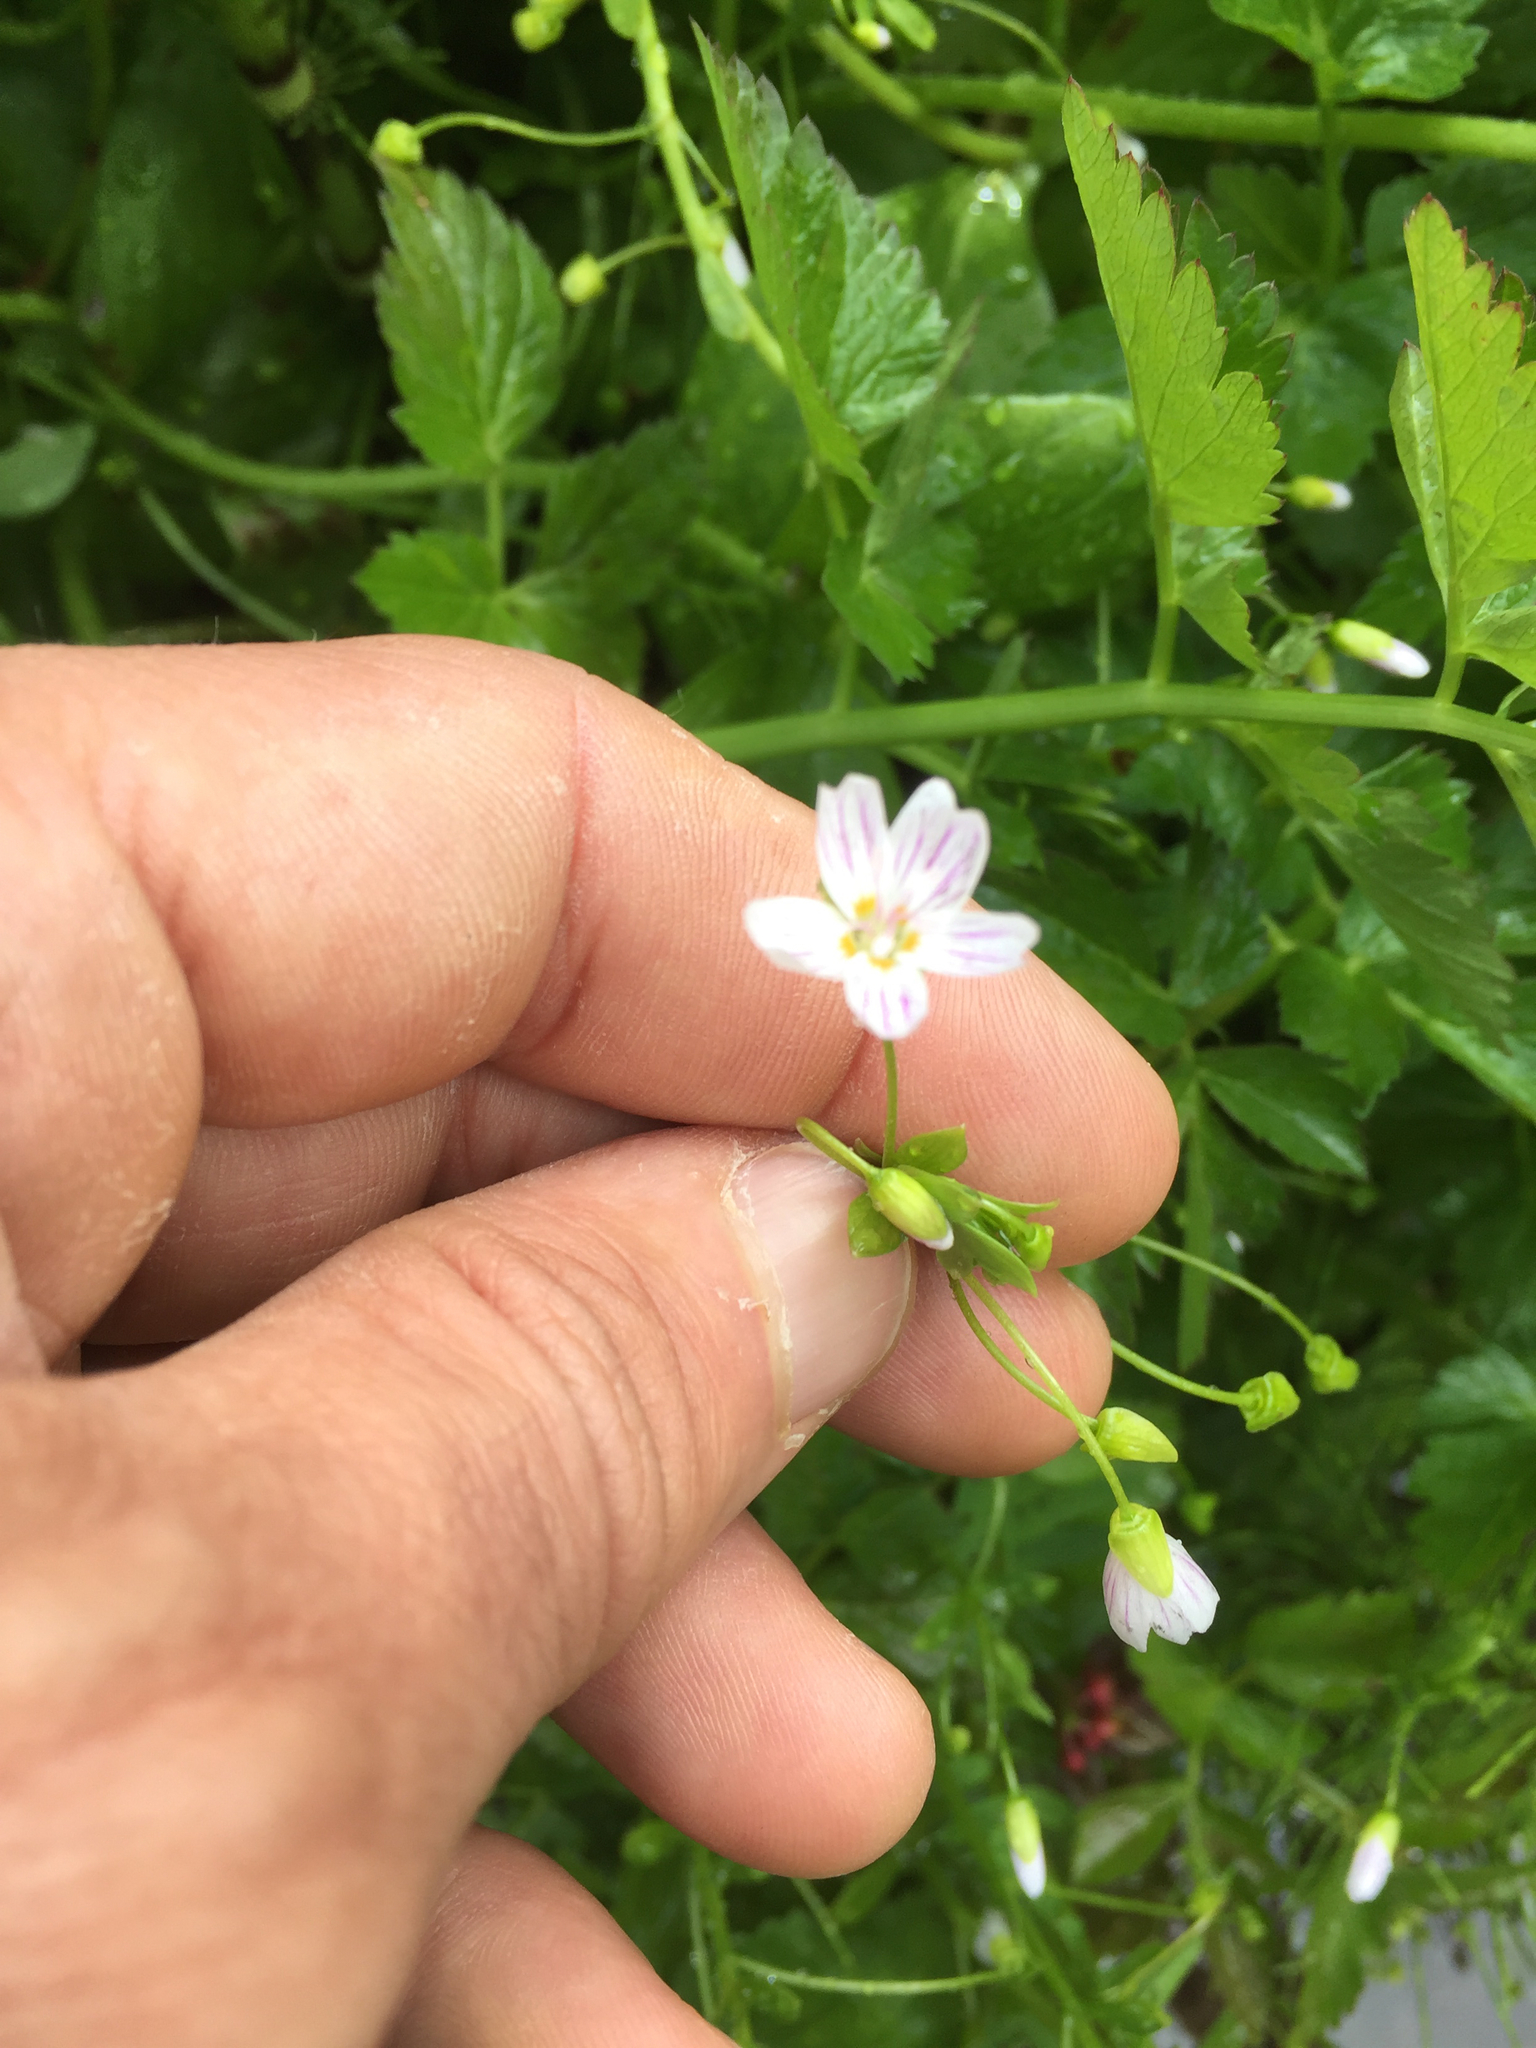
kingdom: Plantae
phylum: Tracheophyta
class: Magnoliopsida
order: Caryophyllales
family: Montiaceae
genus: Claytonia
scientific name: Claytonia sibirica
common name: Pink purslane
